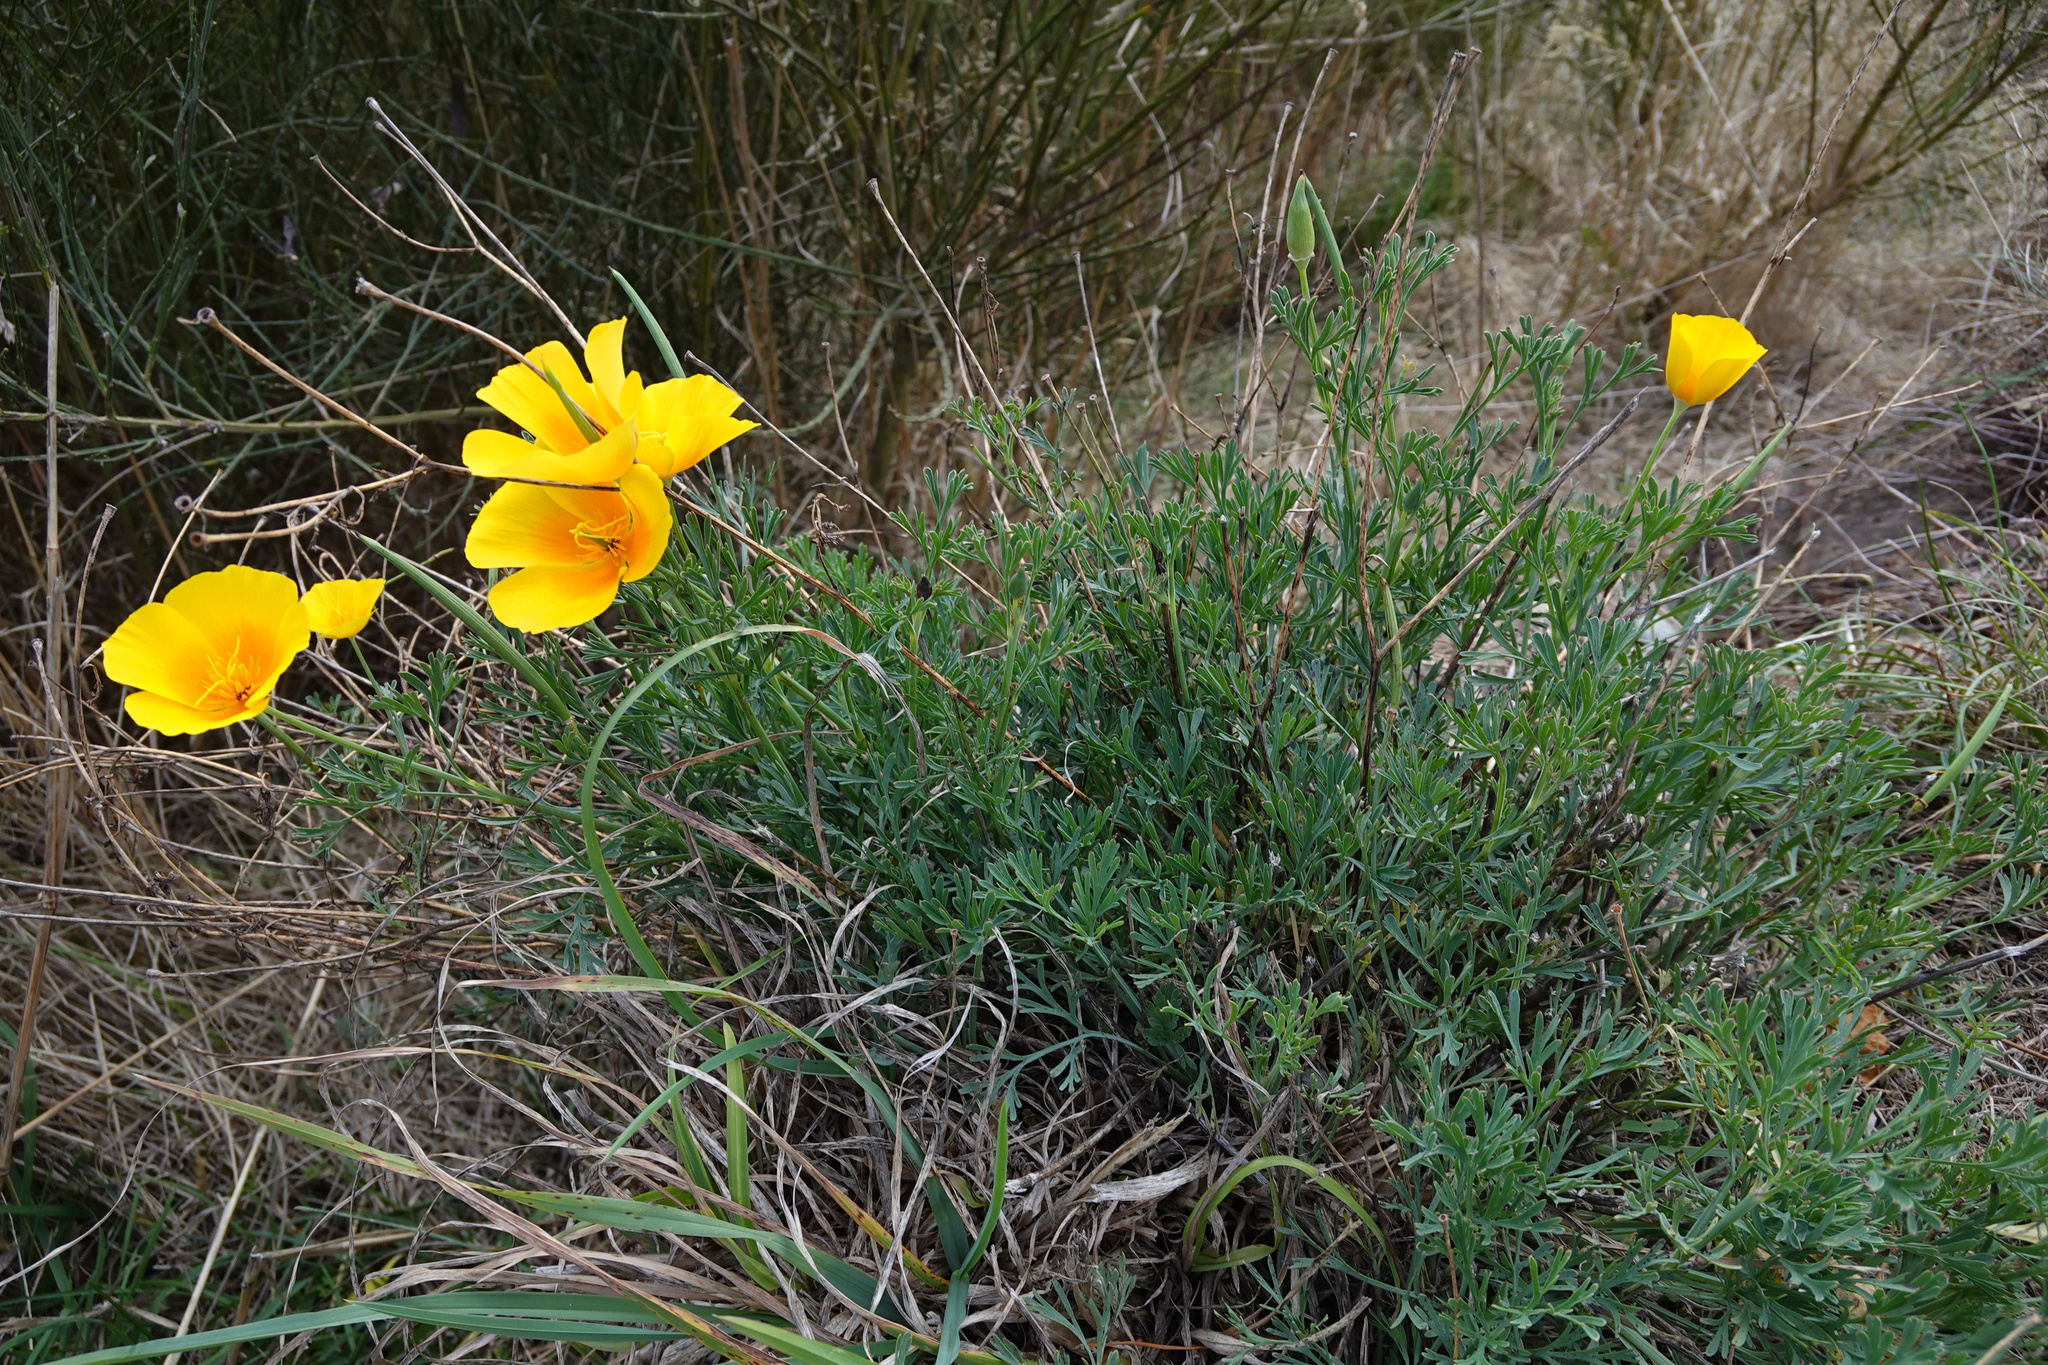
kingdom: Plantae
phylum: Tracheophyta
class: Magnoliopsida
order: Ranunculales
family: Papaveraceae
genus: Eschscholzia
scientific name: Eschscholzia californica
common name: California poppy
